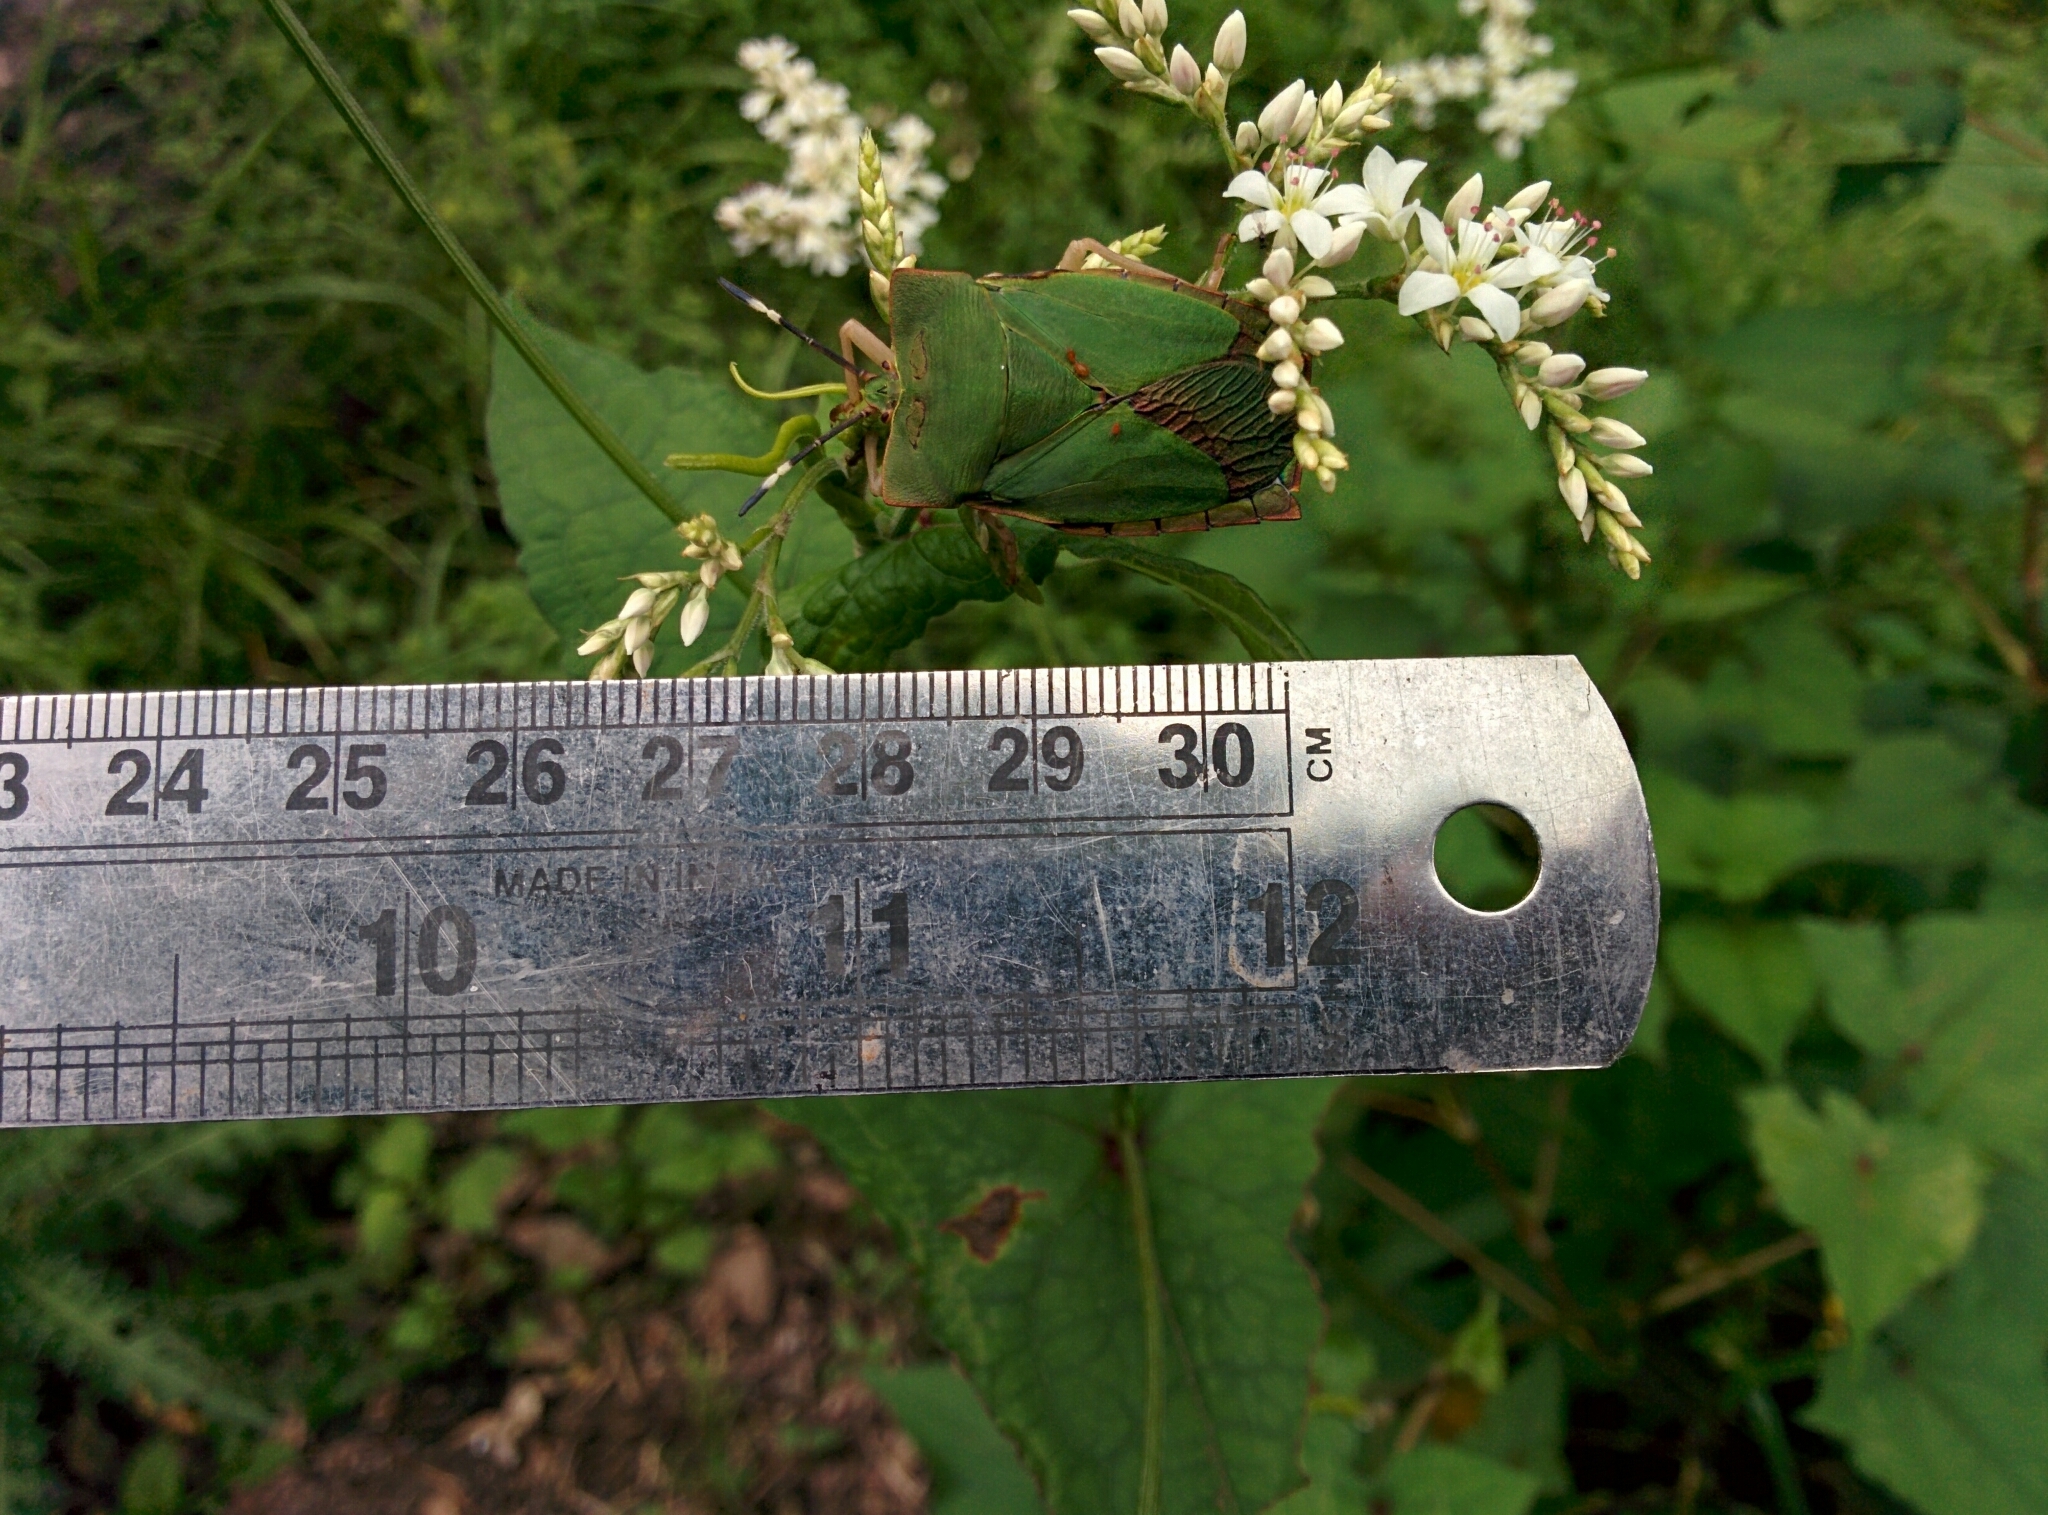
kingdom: Animalia
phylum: Arthropoda
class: Insecta
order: Hemiptera
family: Tessaratomidae
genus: Asiarcha
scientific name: Asiarcha oblonga
